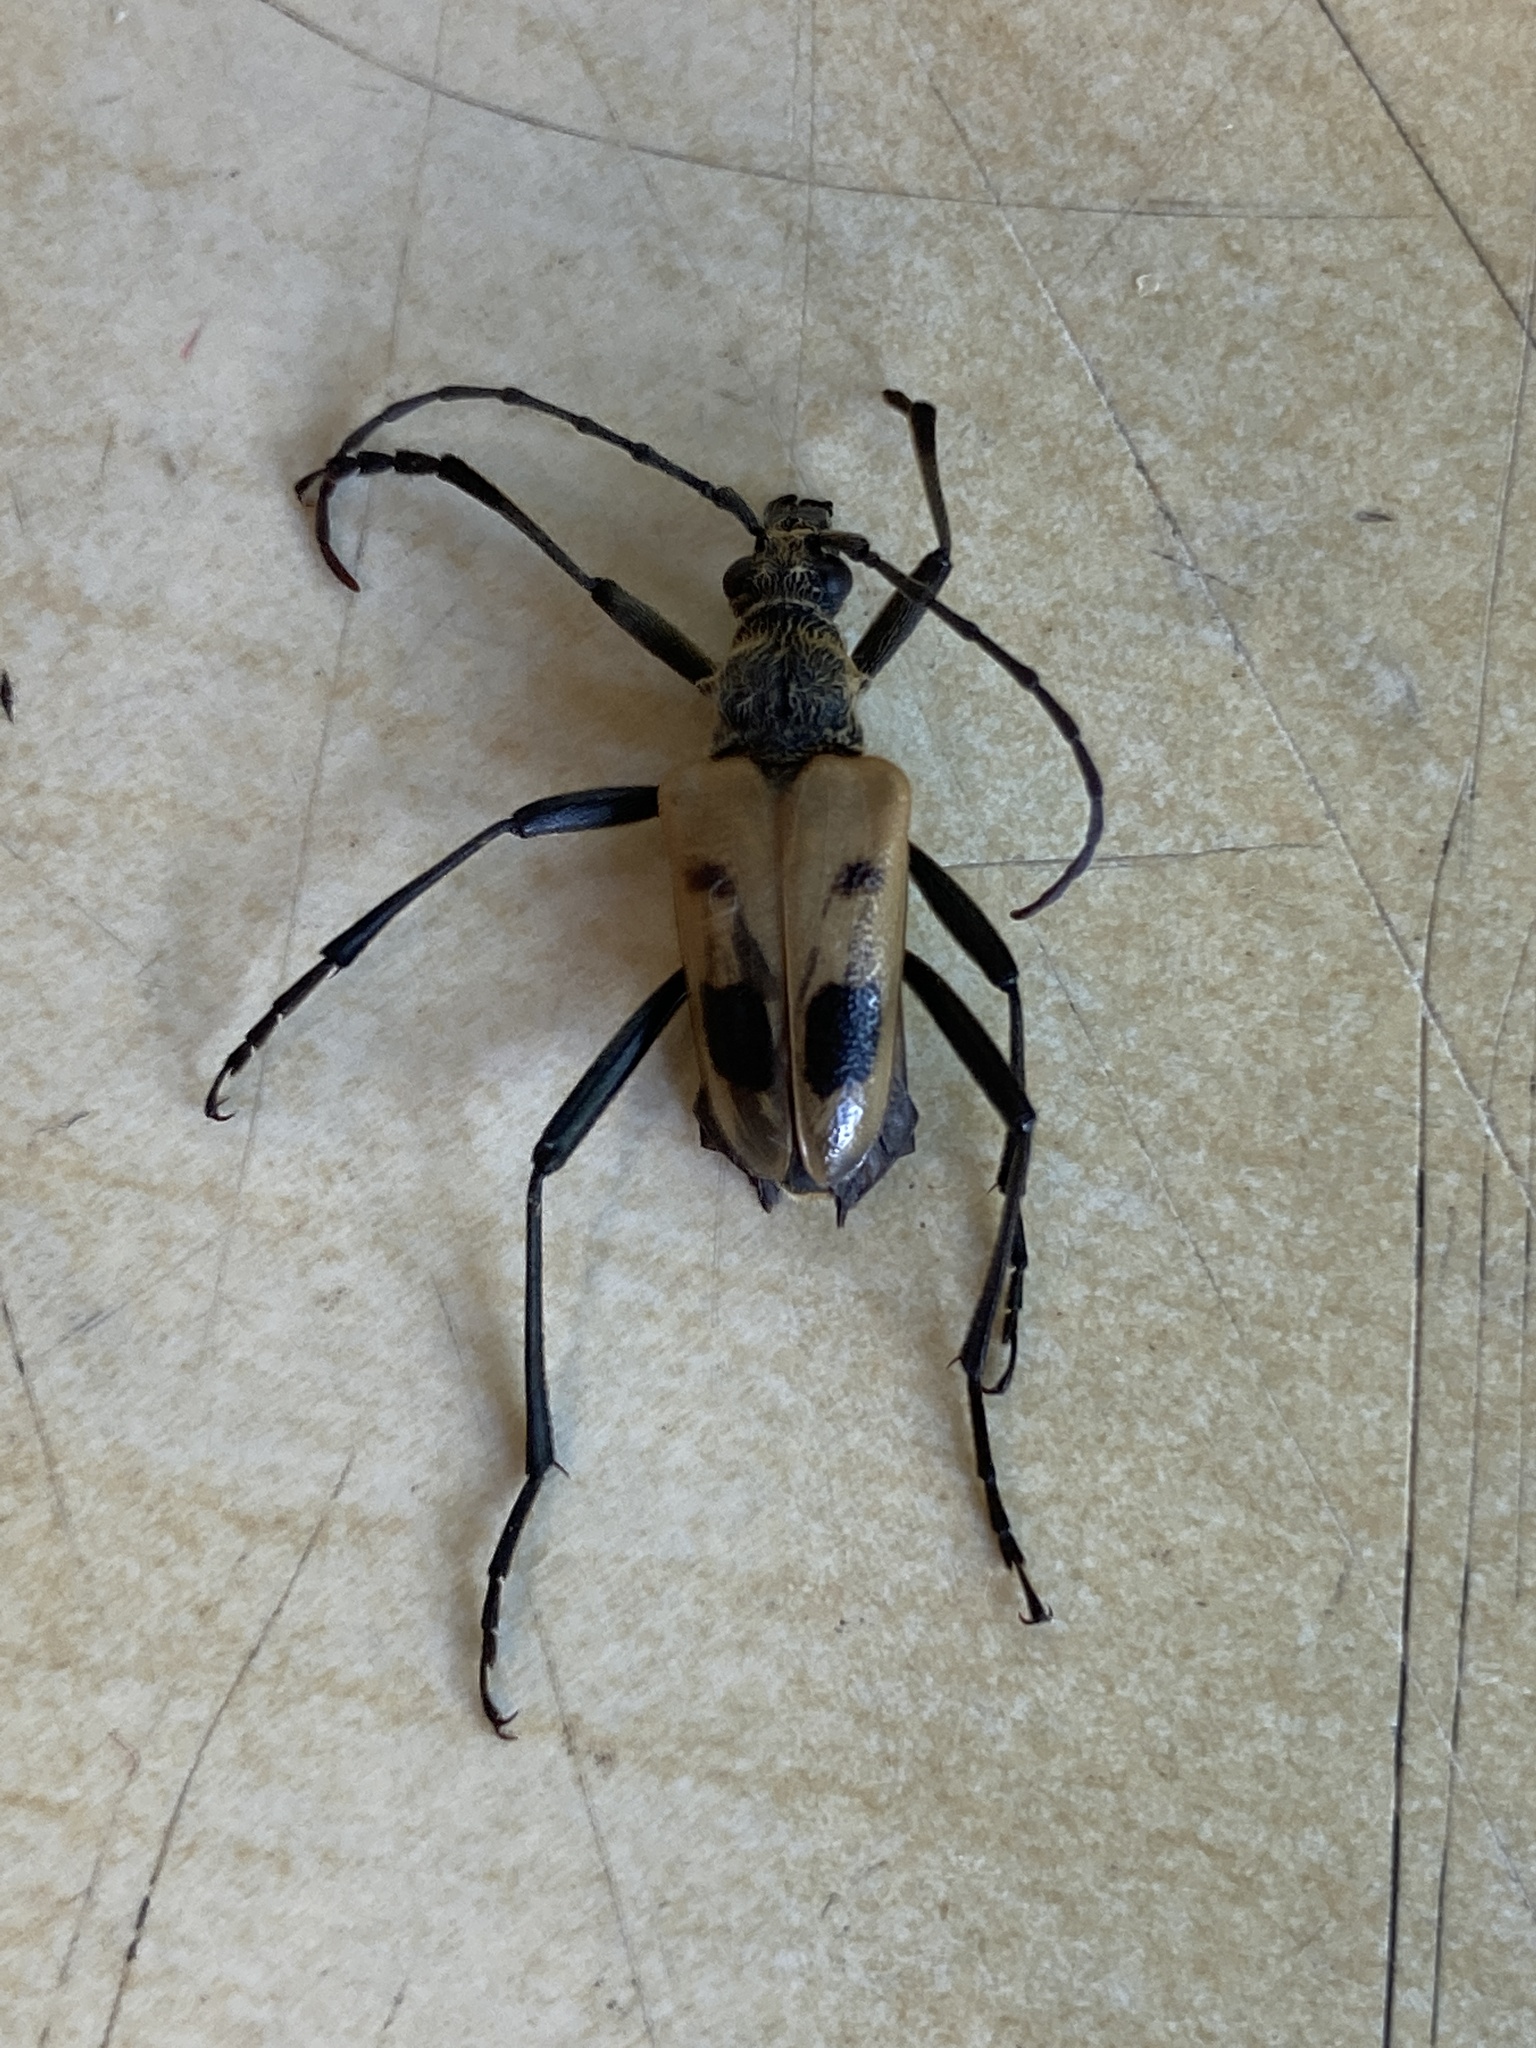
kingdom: Animalia
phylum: Arthropoda
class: Insecta
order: Coleoptera
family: Cerambycidae
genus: Pachyta
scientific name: Pachyta quadrimaculata
